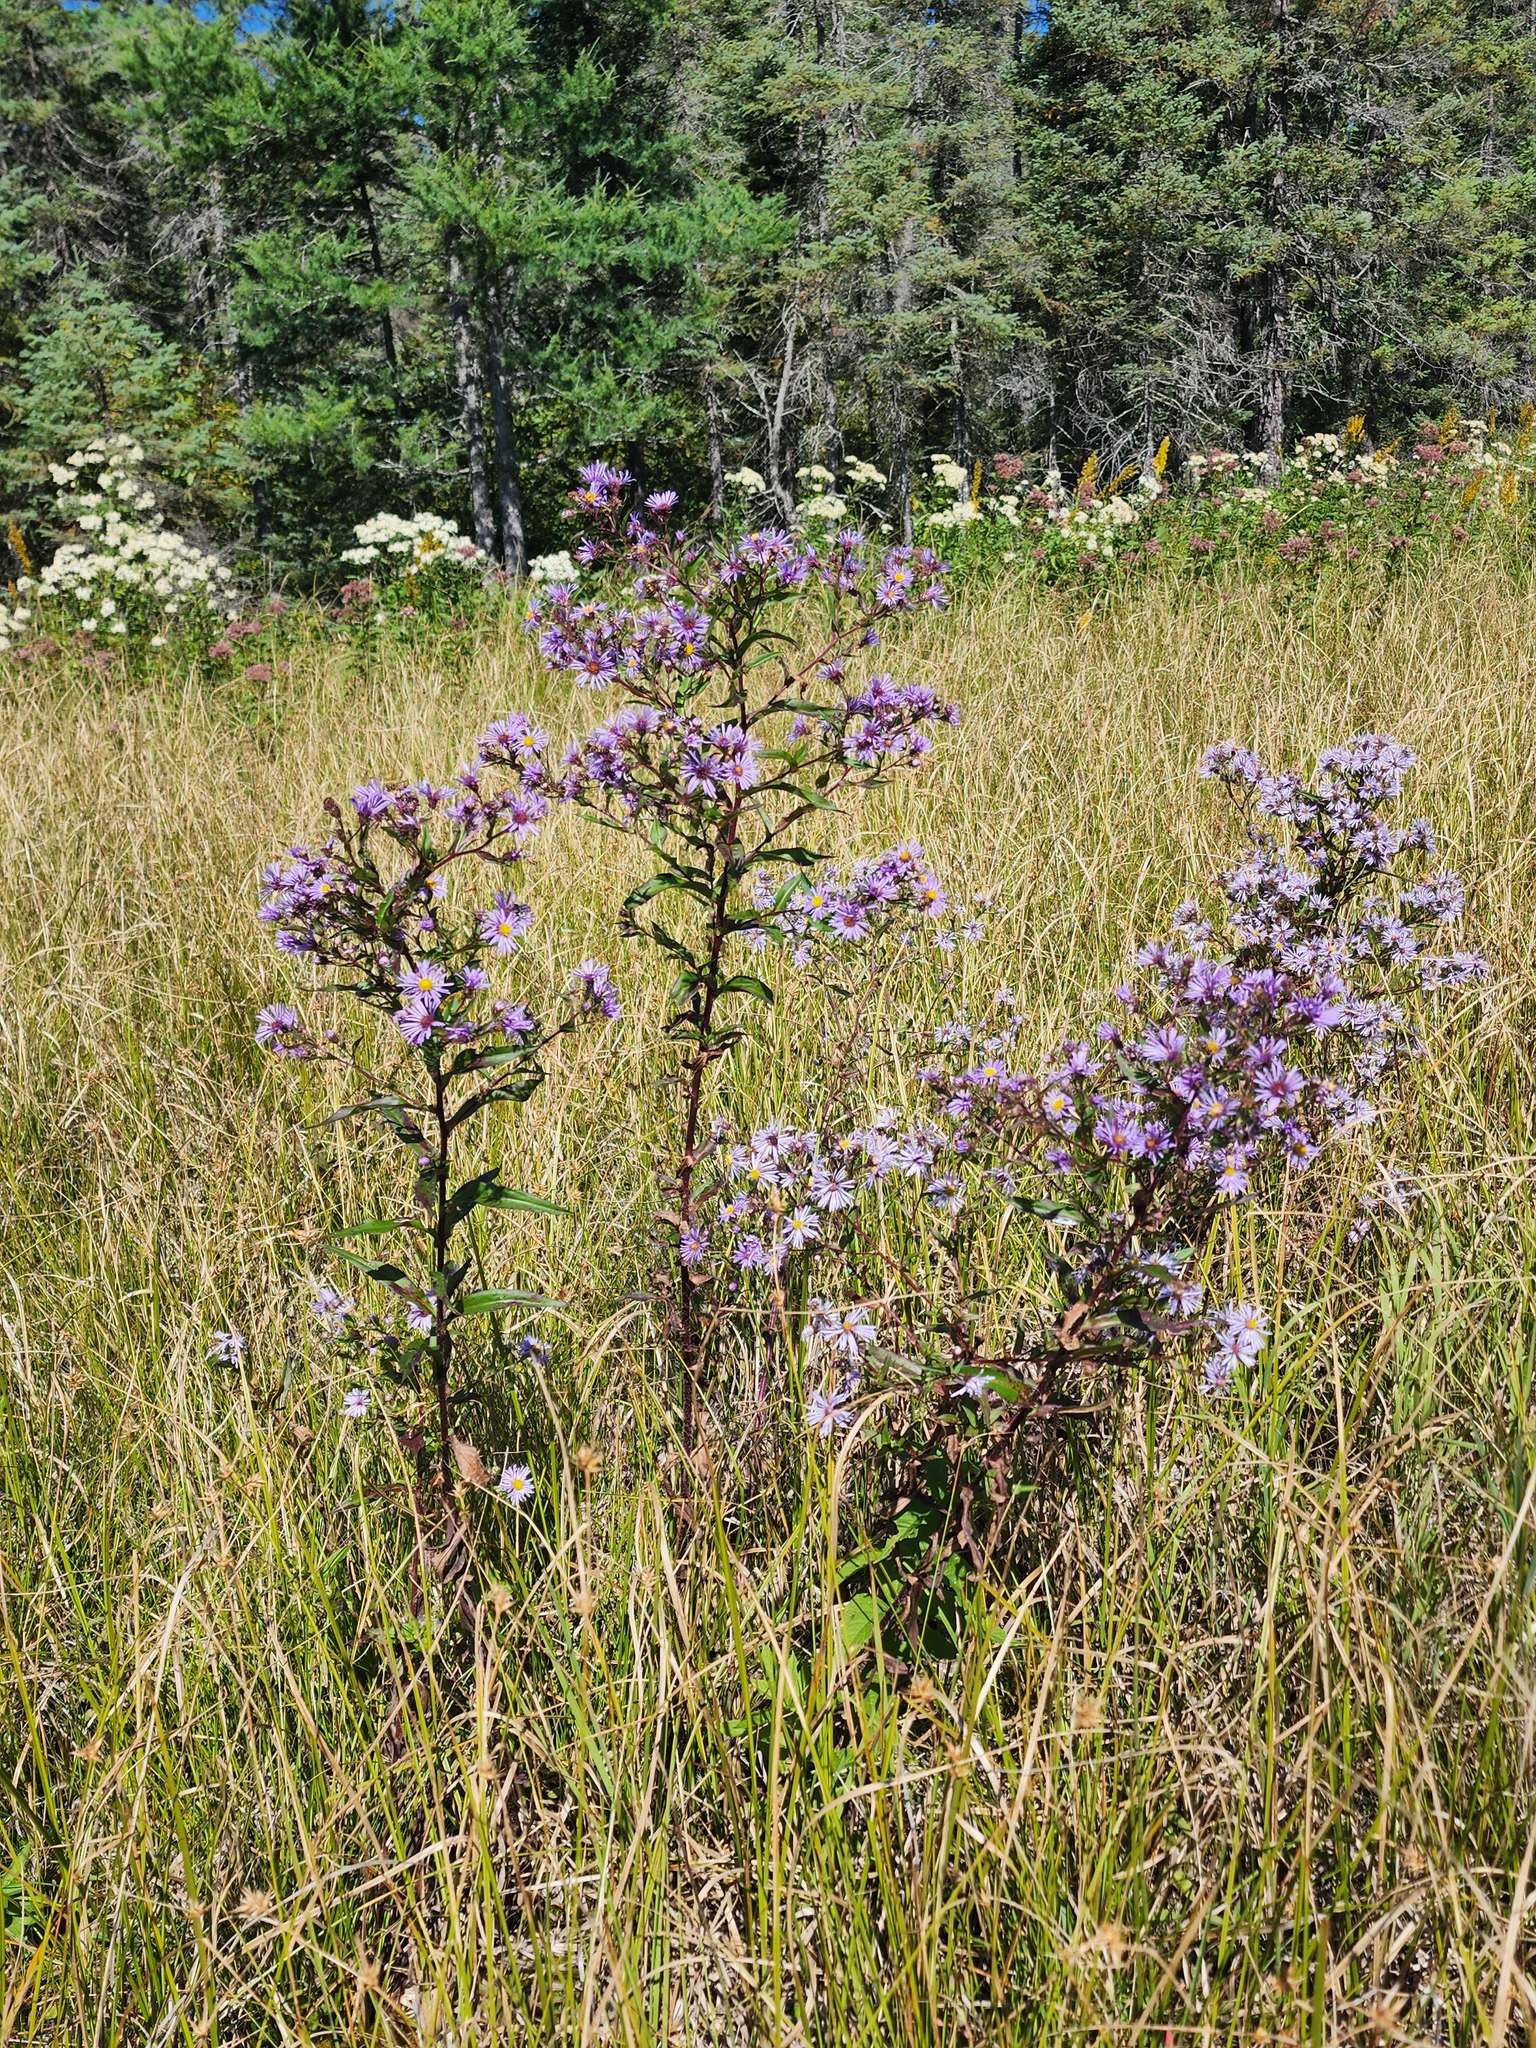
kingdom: Plantae
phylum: Tracheophyta
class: Magnoliopsida
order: Asterales
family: Asteraceae
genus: Symphyotrichum
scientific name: Symphyotrichum puniceum
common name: Bog aster
